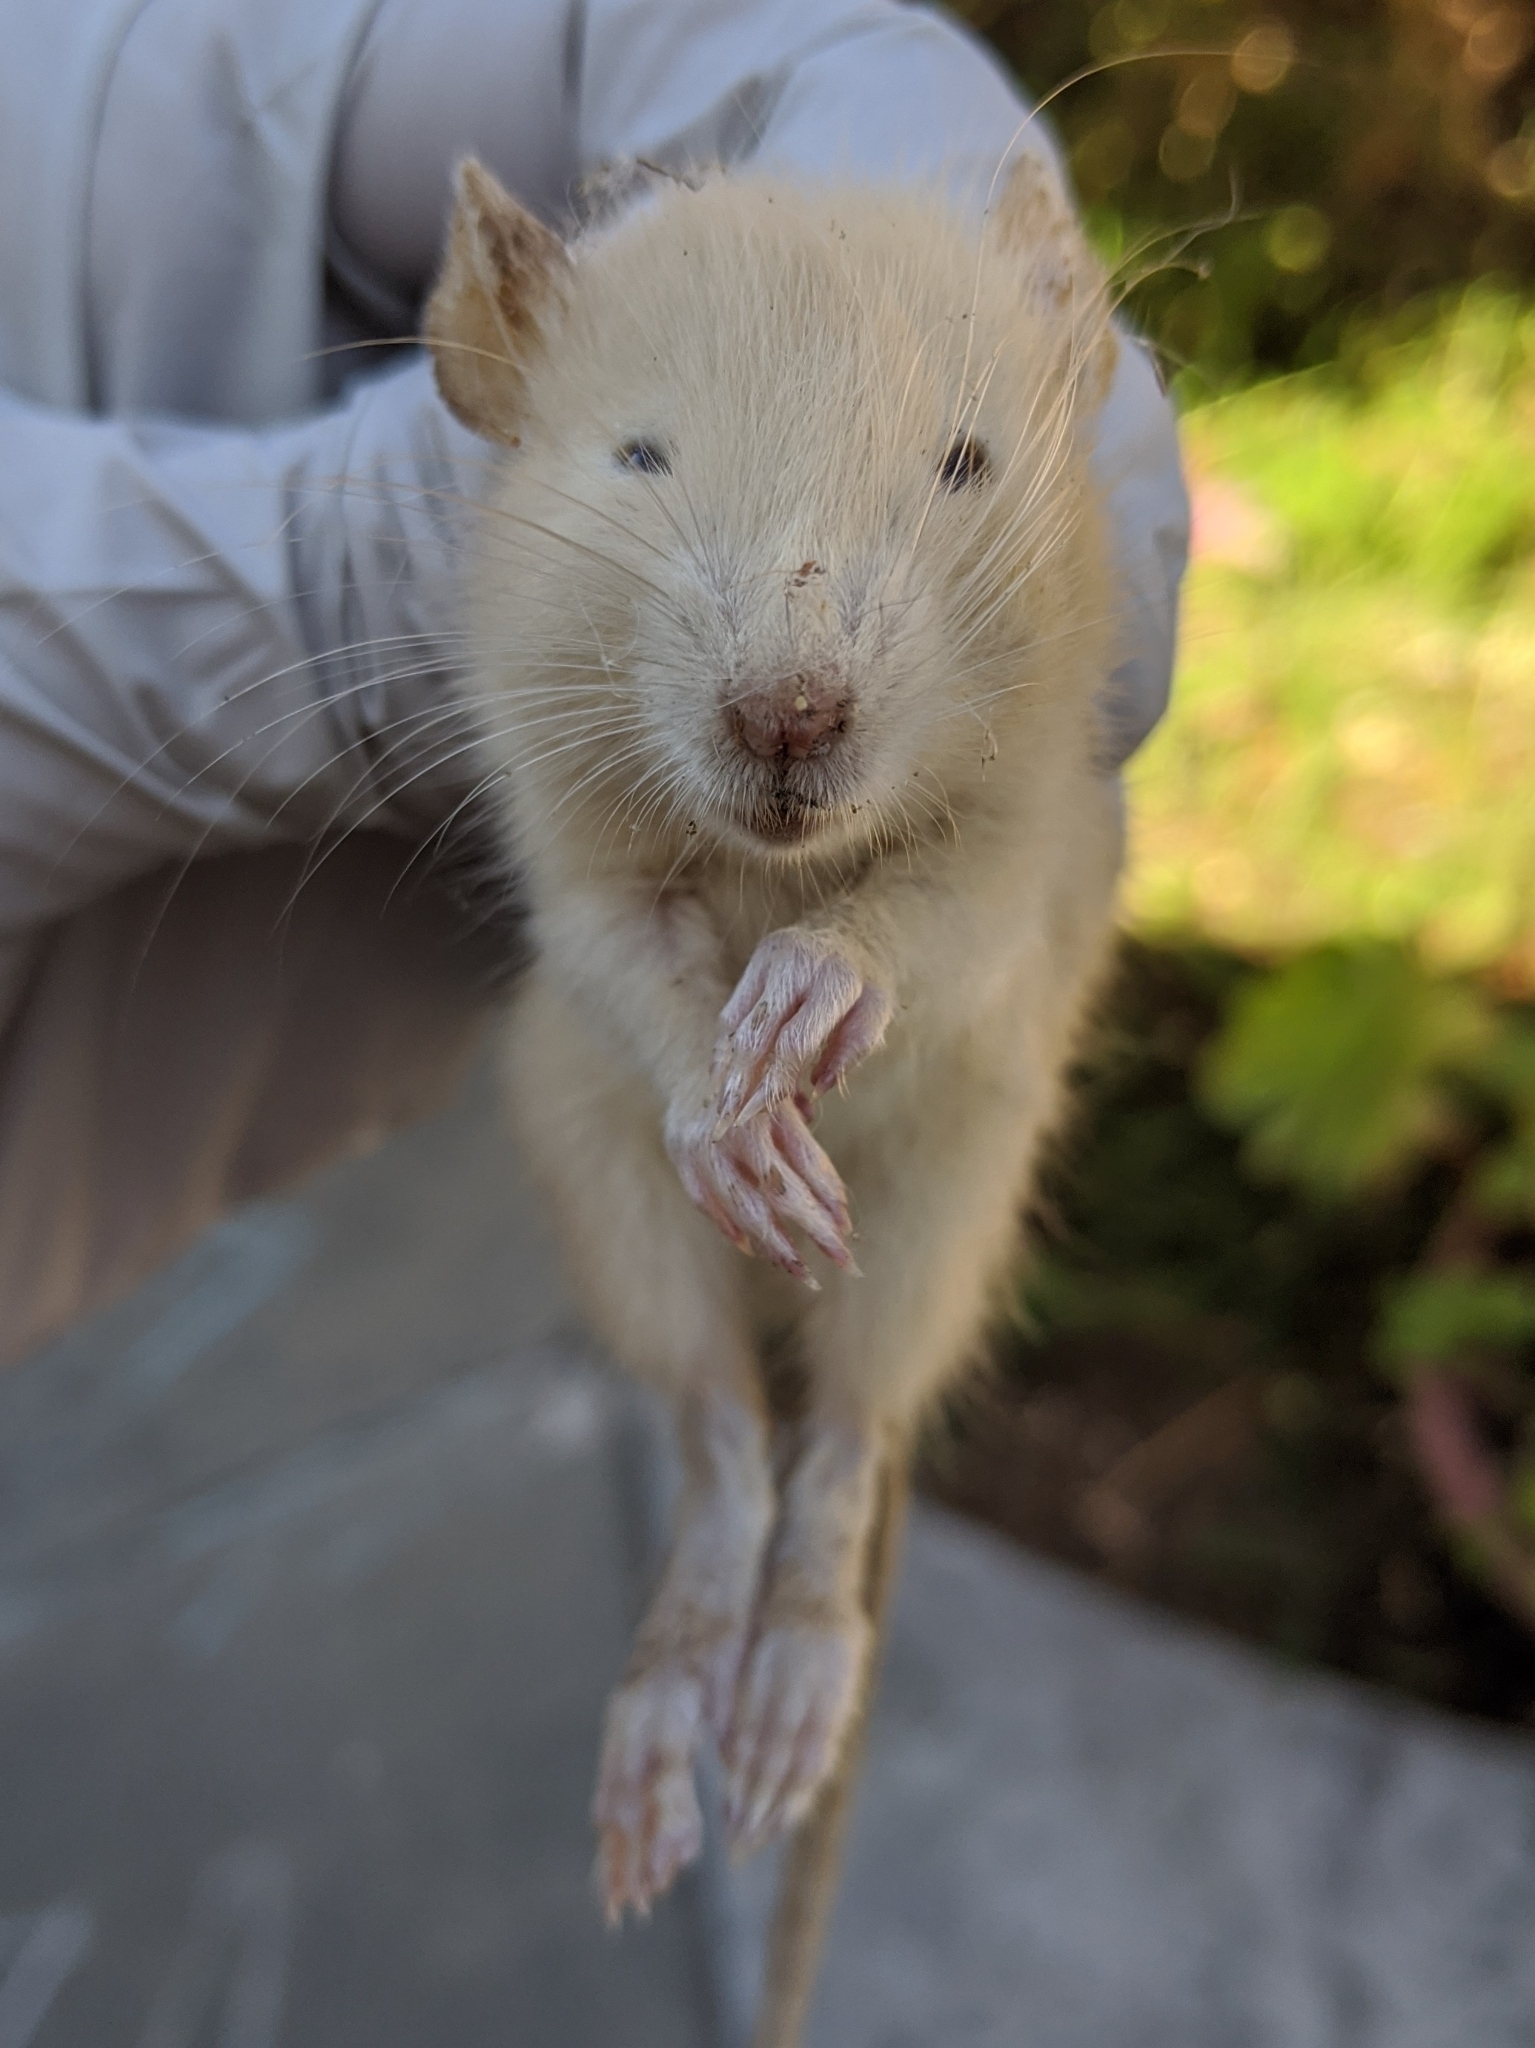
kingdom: Animalia
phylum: Chordata
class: Mammalia
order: Rodentia
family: Muridae
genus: Rattus
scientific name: Rattus rattus
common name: Black rat
